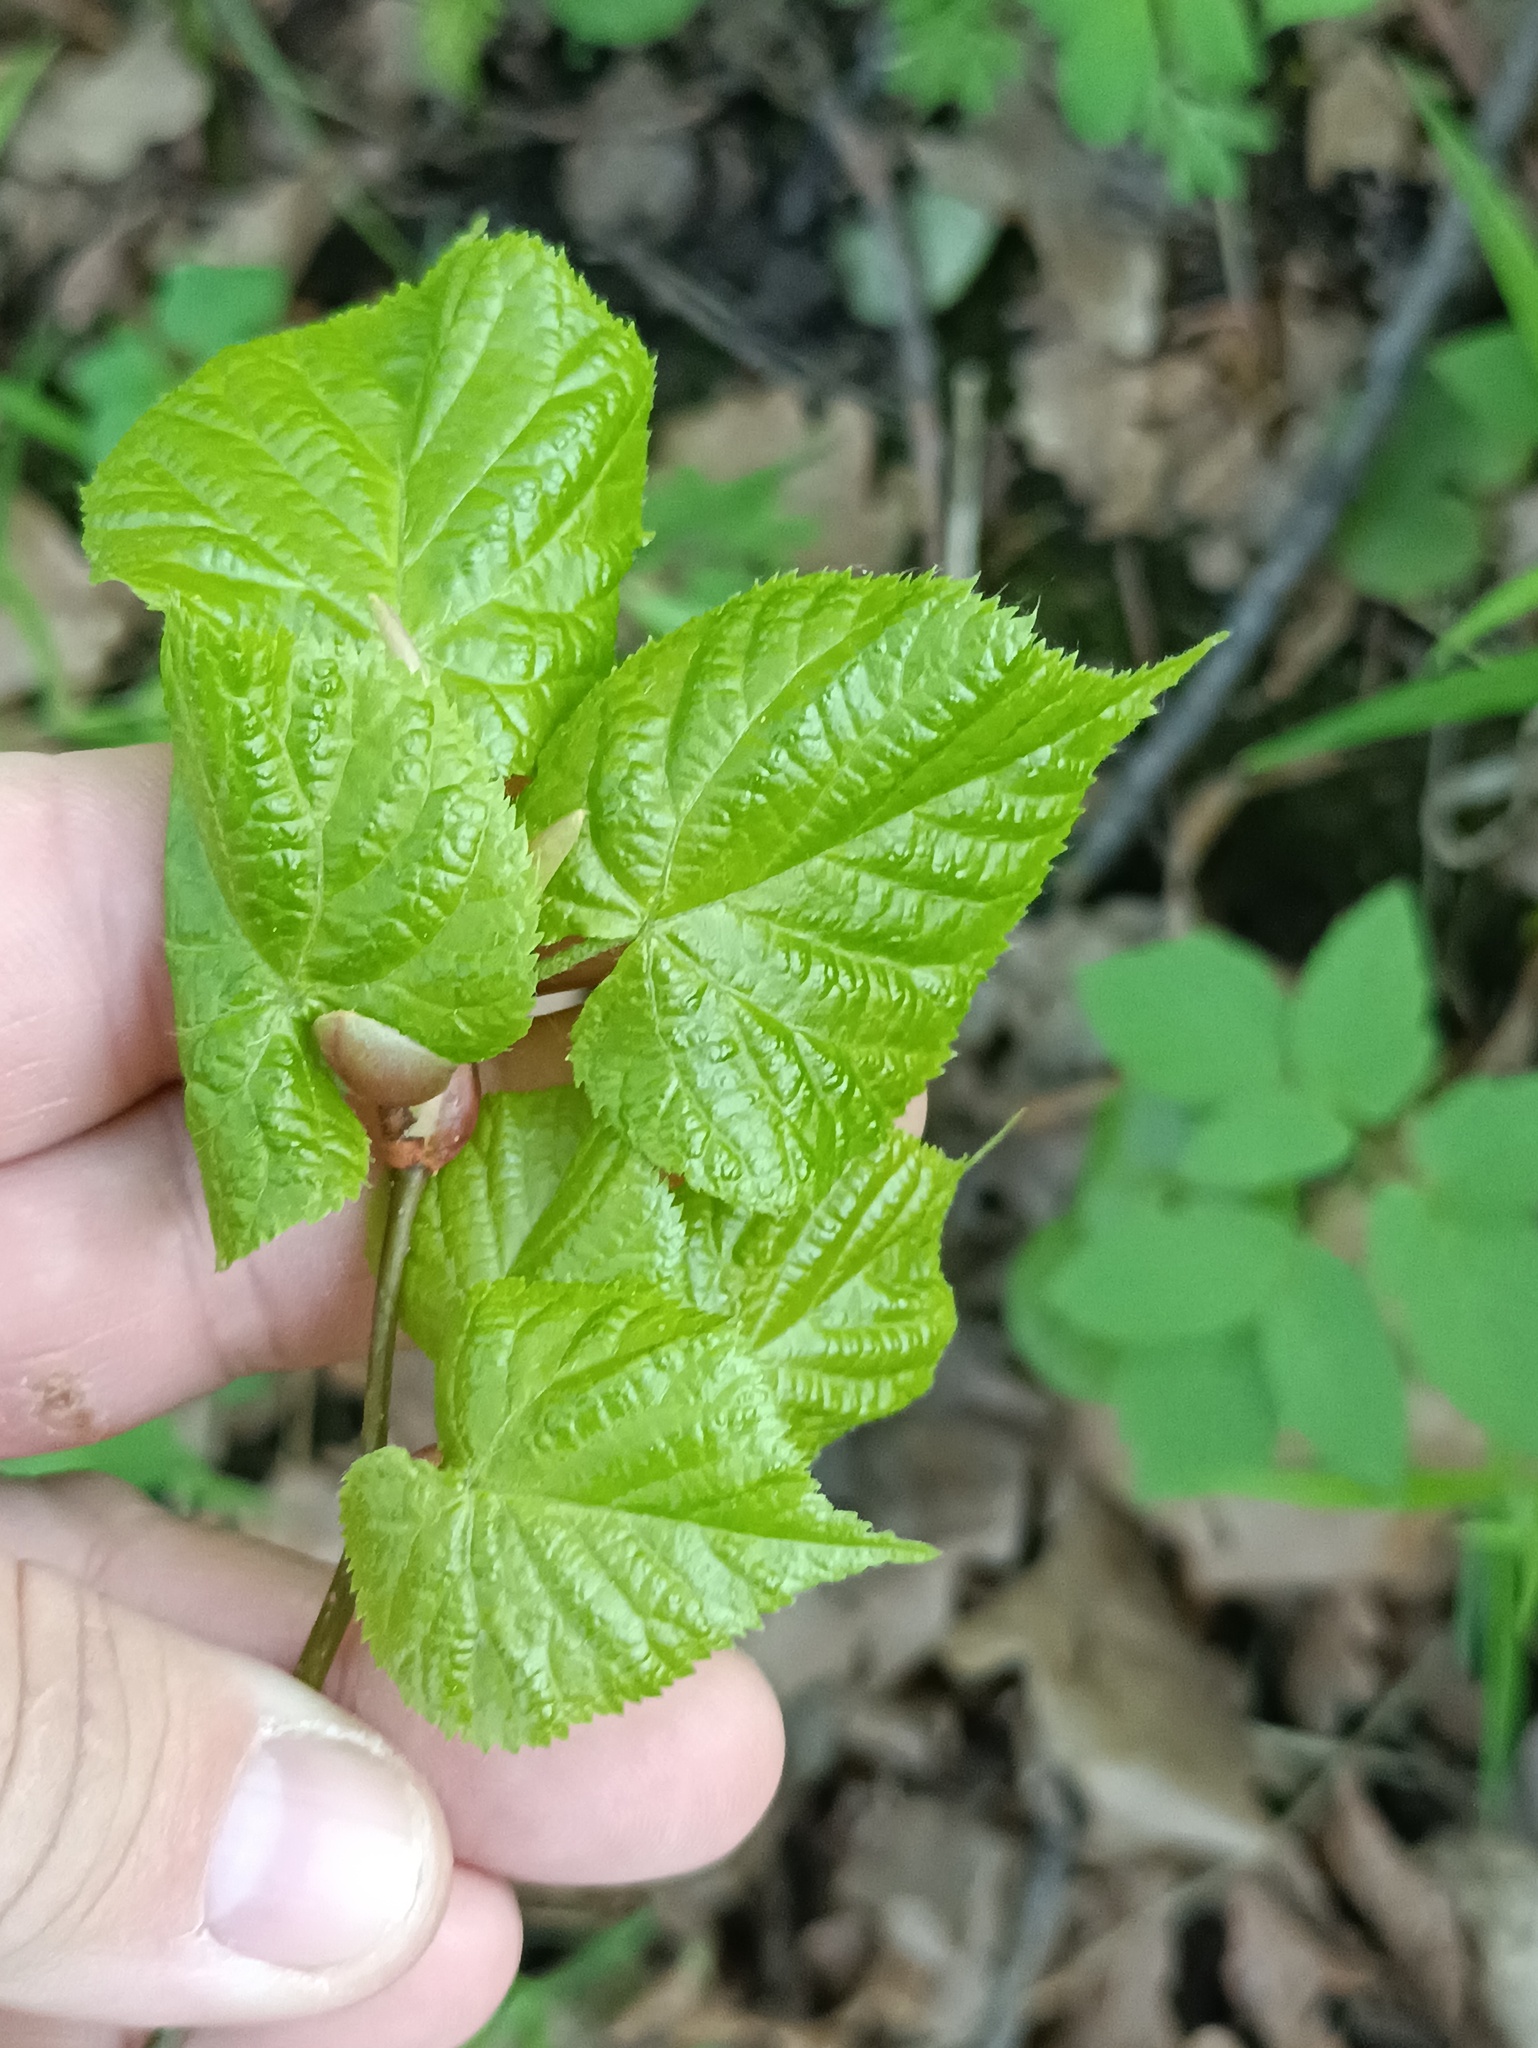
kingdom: Plantae
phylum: Tracheophyta
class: Magnoliopsida
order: Malvales
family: Malvaceae
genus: Tilia
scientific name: Tilia cordata
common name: Small-leaved lime
